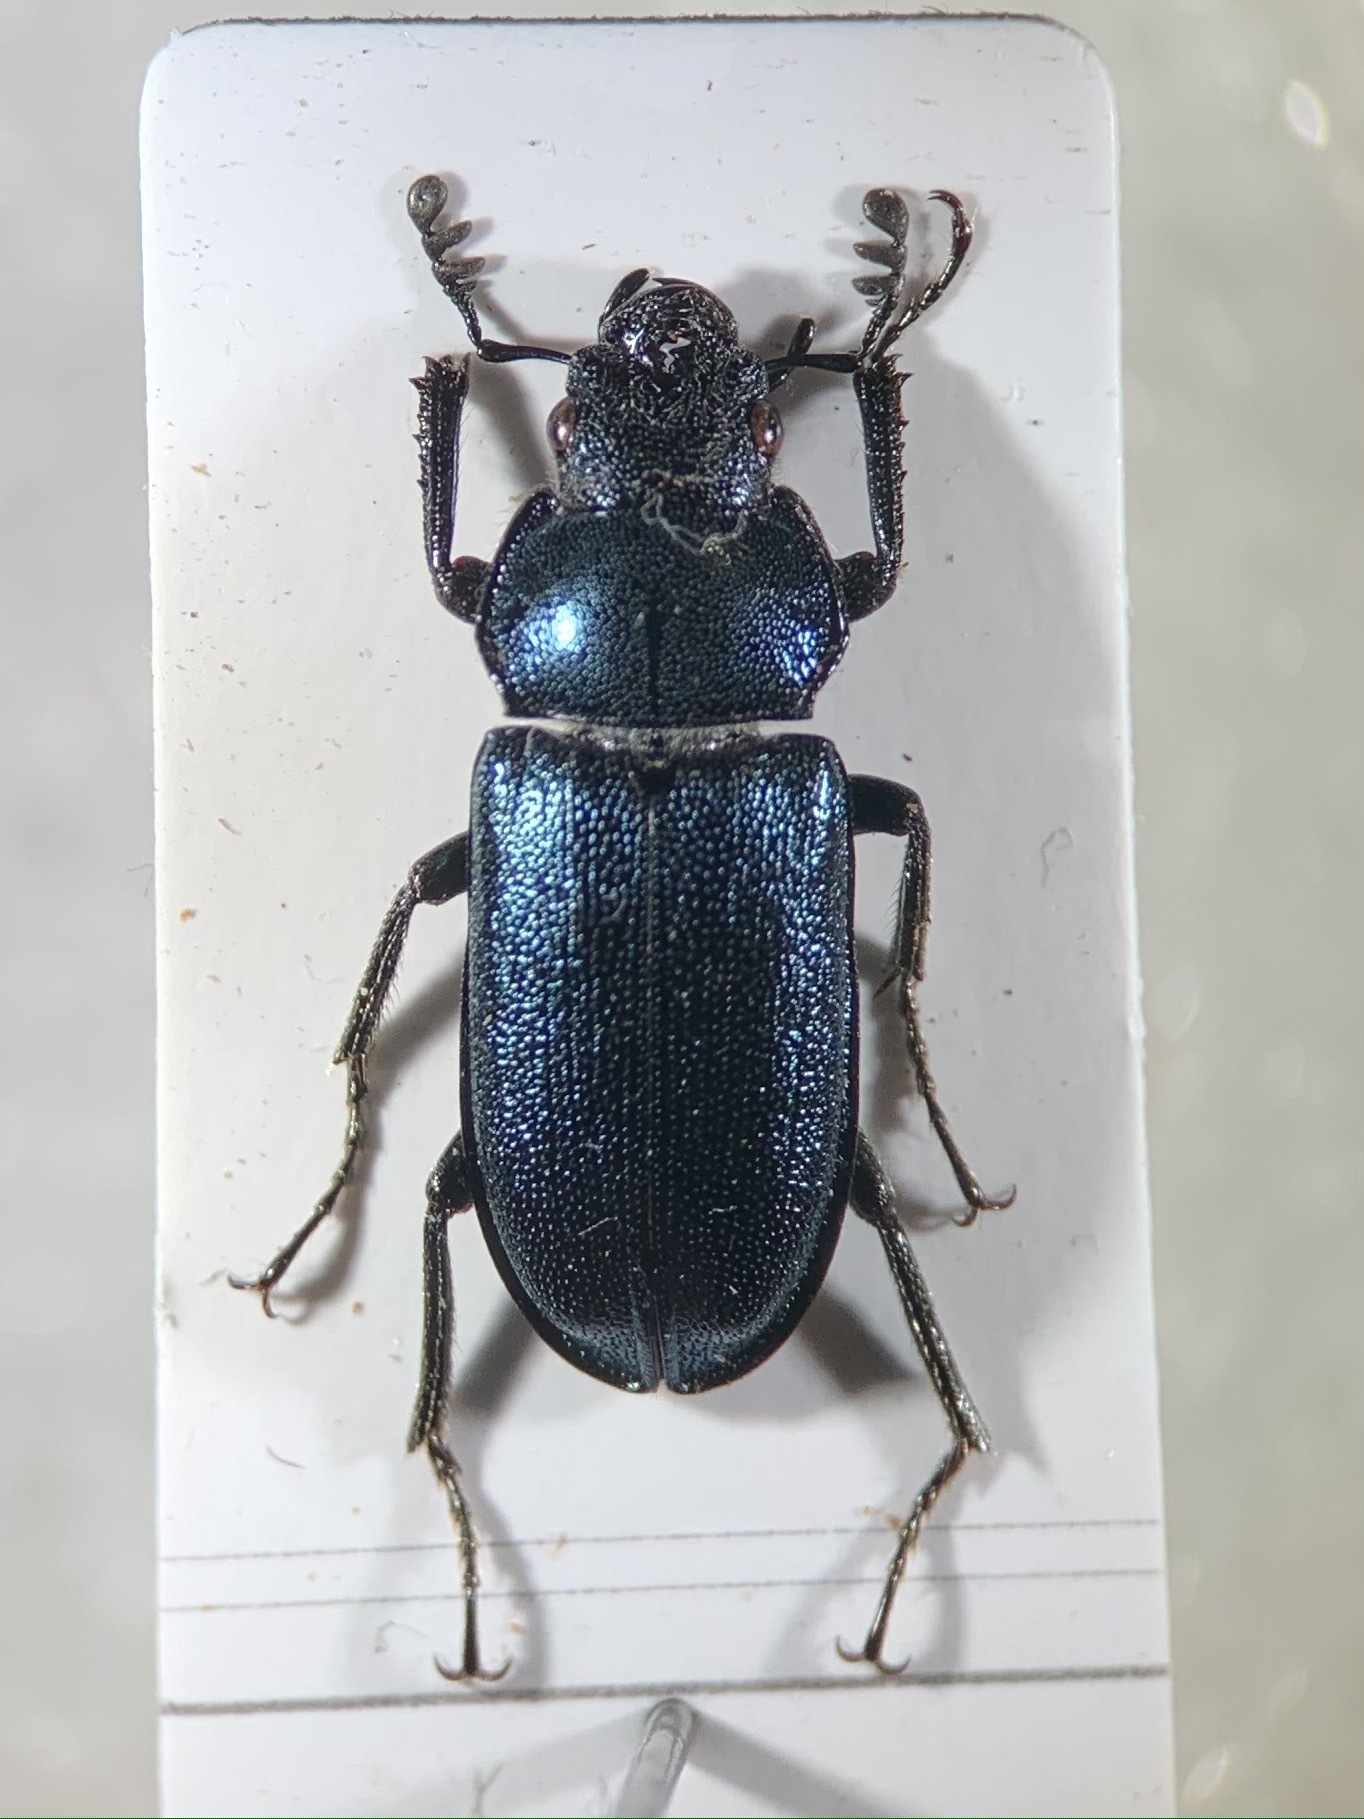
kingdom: Animalia
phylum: Arthropoda
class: Insecta
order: Coleoptera
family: Lucanidae
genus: Platycerus
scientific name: Platycerus caraboides
